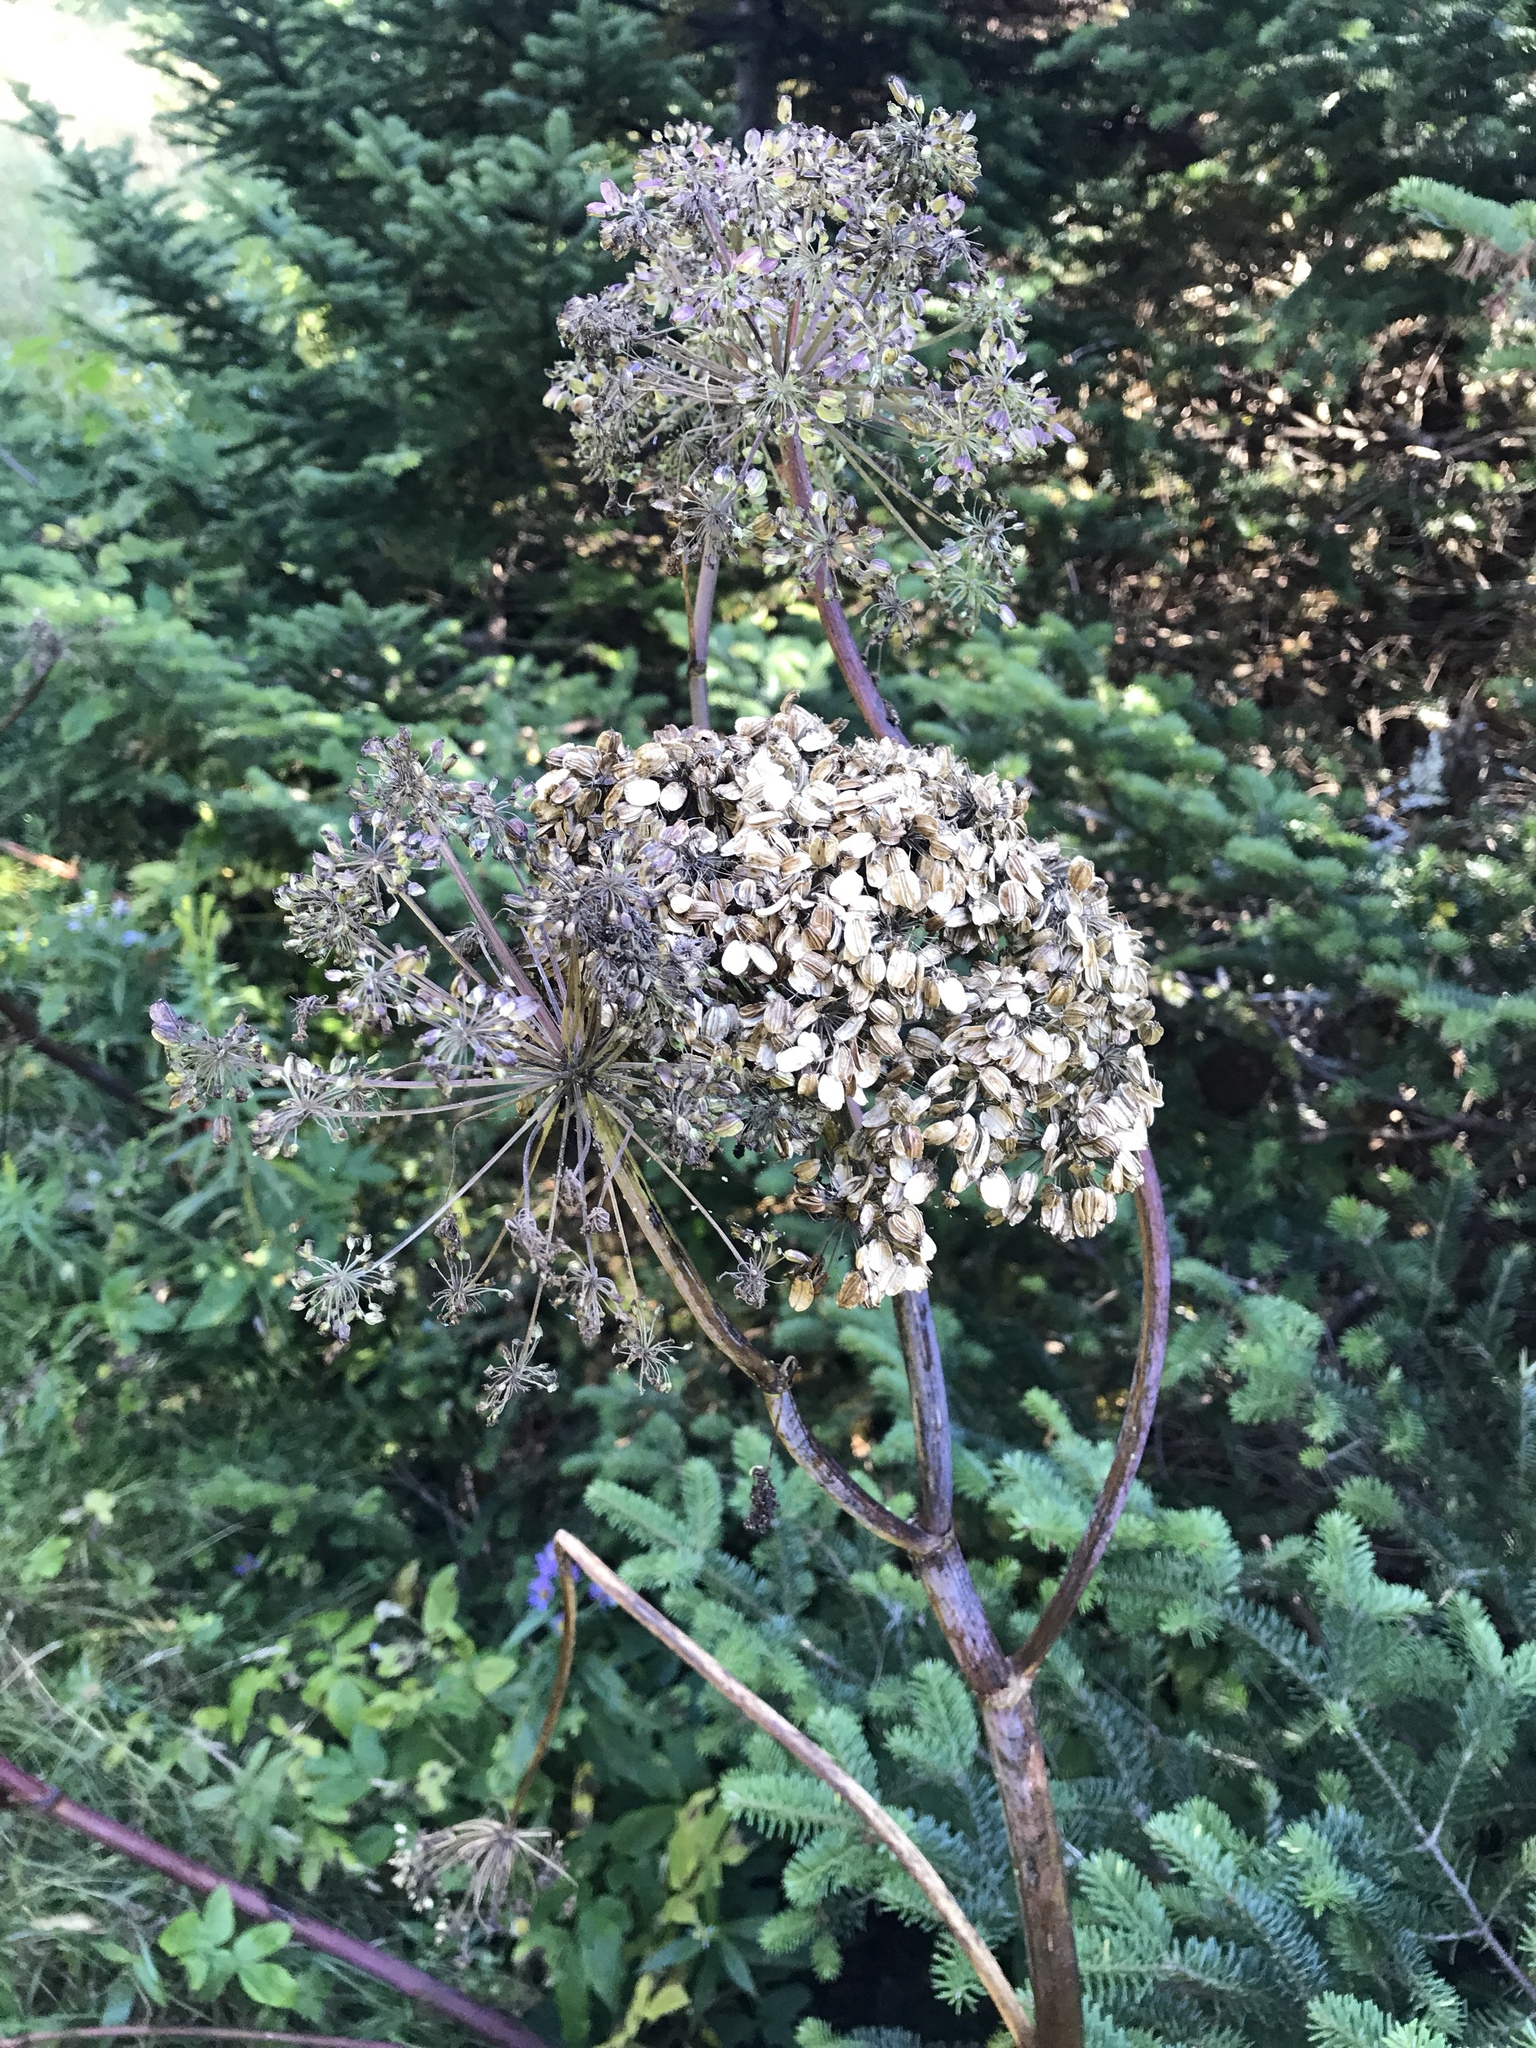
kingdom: Plantae
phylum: Tracheophyta
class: Magnoliopsida
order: Apiales
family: Apiaceae
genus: Angelica
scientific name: Angelica atropurpurea
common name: Great angelica
